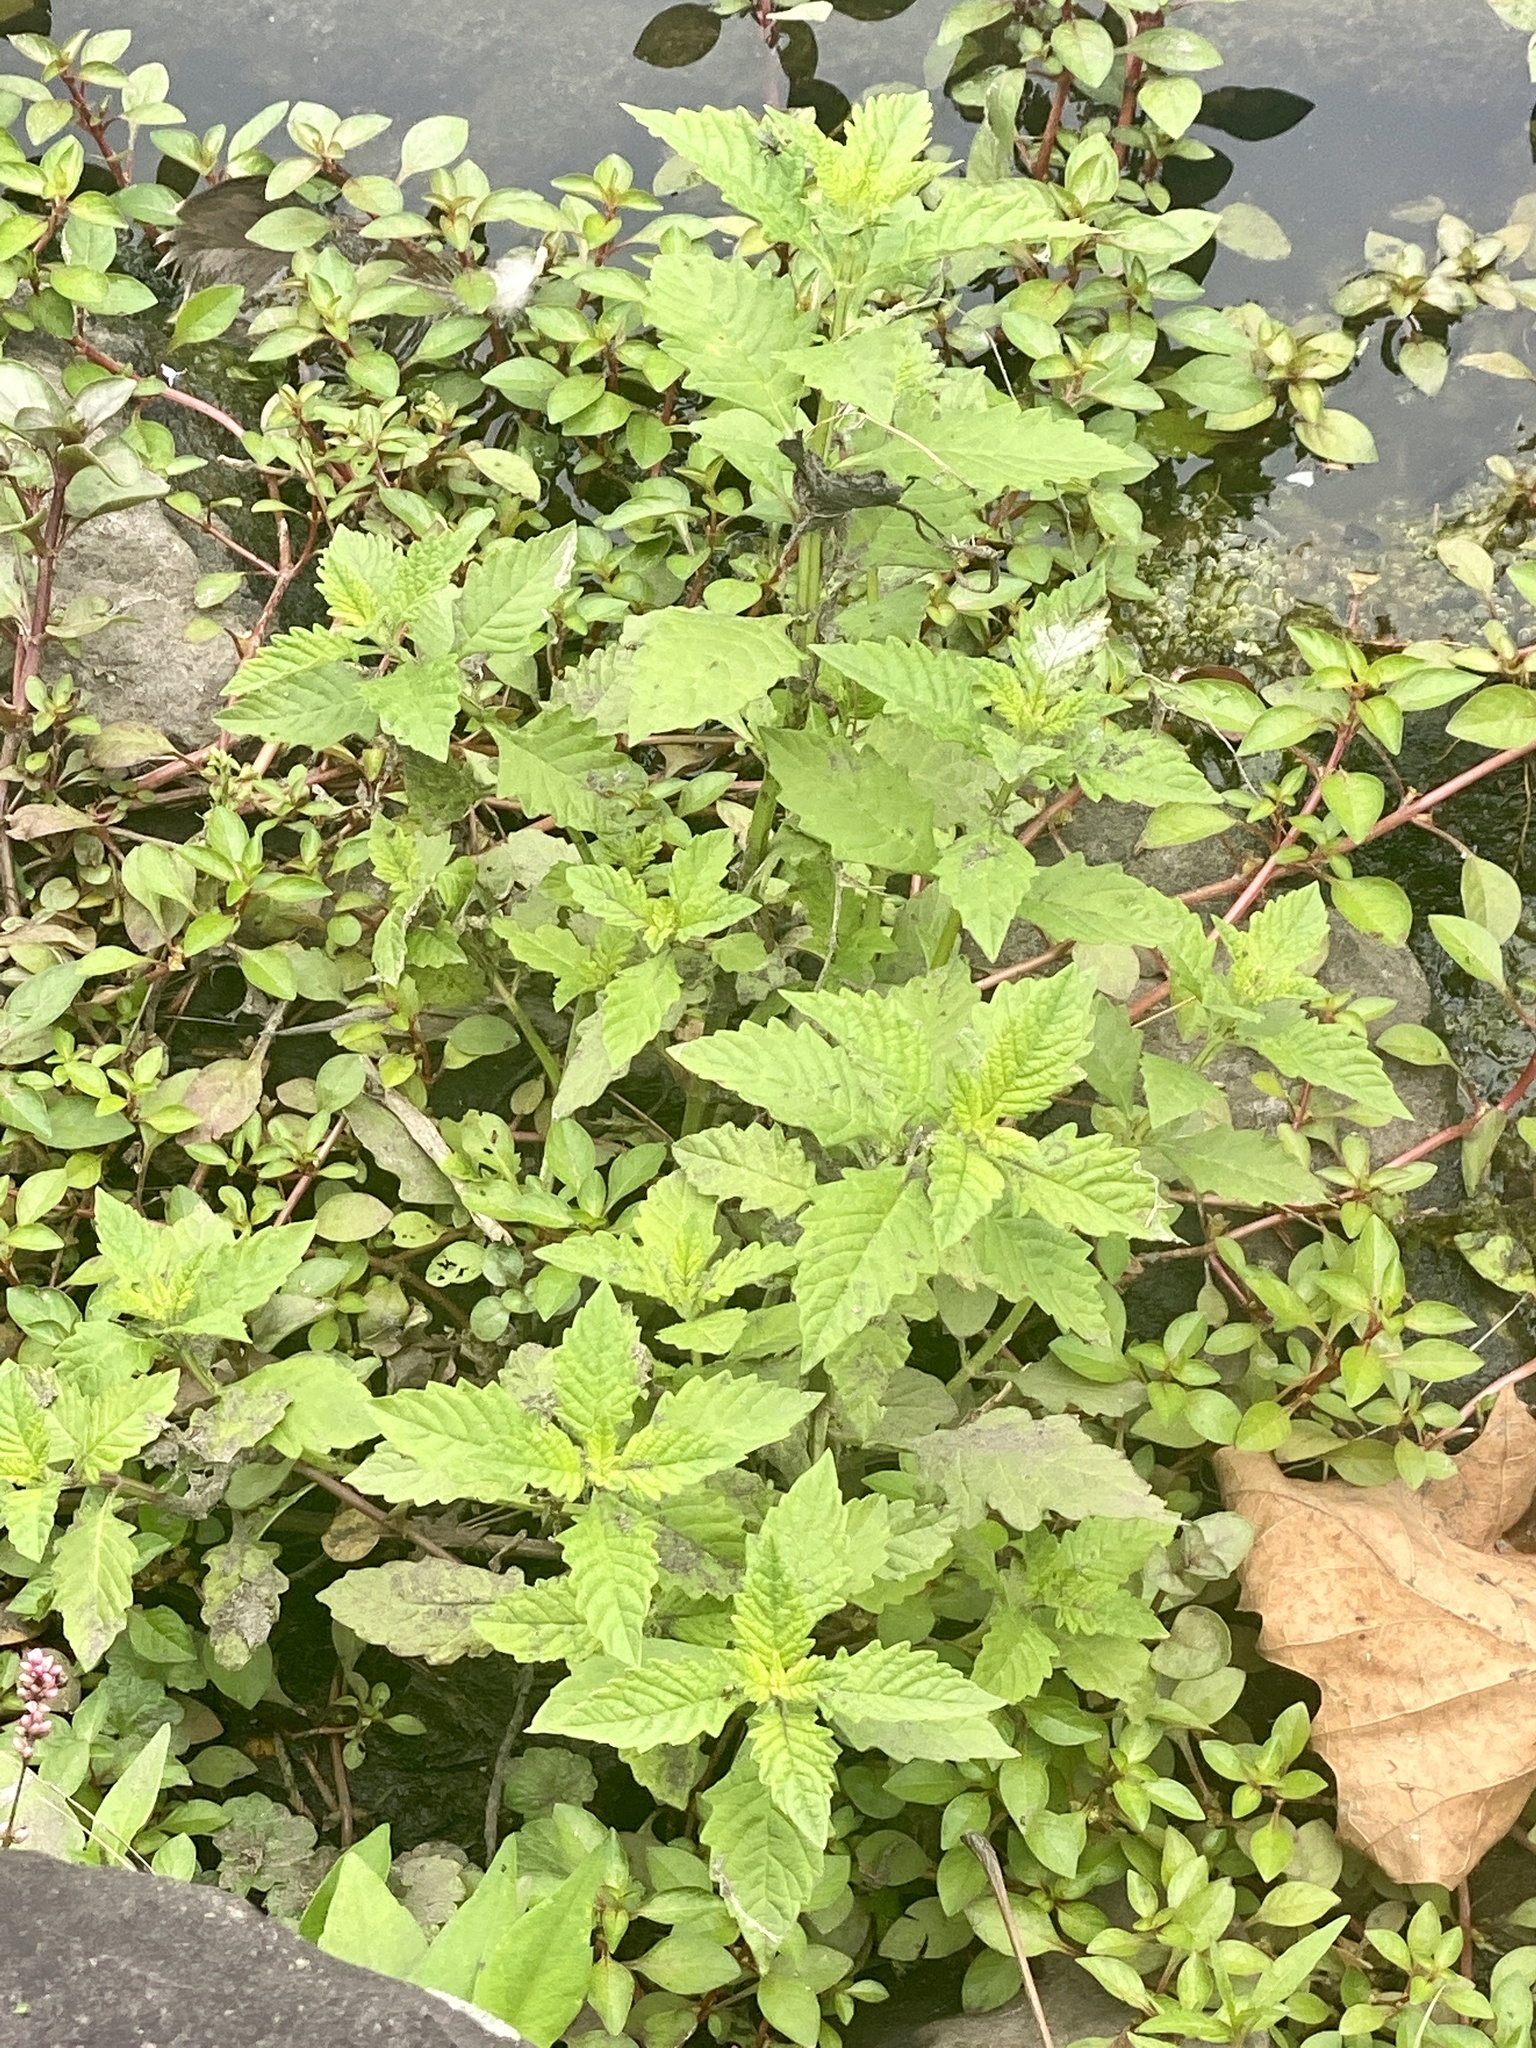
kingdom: Plantae
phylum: Tracheophyta
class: Magnoliopsida
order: Lamiales
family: Lamiaceae
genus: Lycopus
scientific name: Lycopus europaeus
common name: European bugleweed
